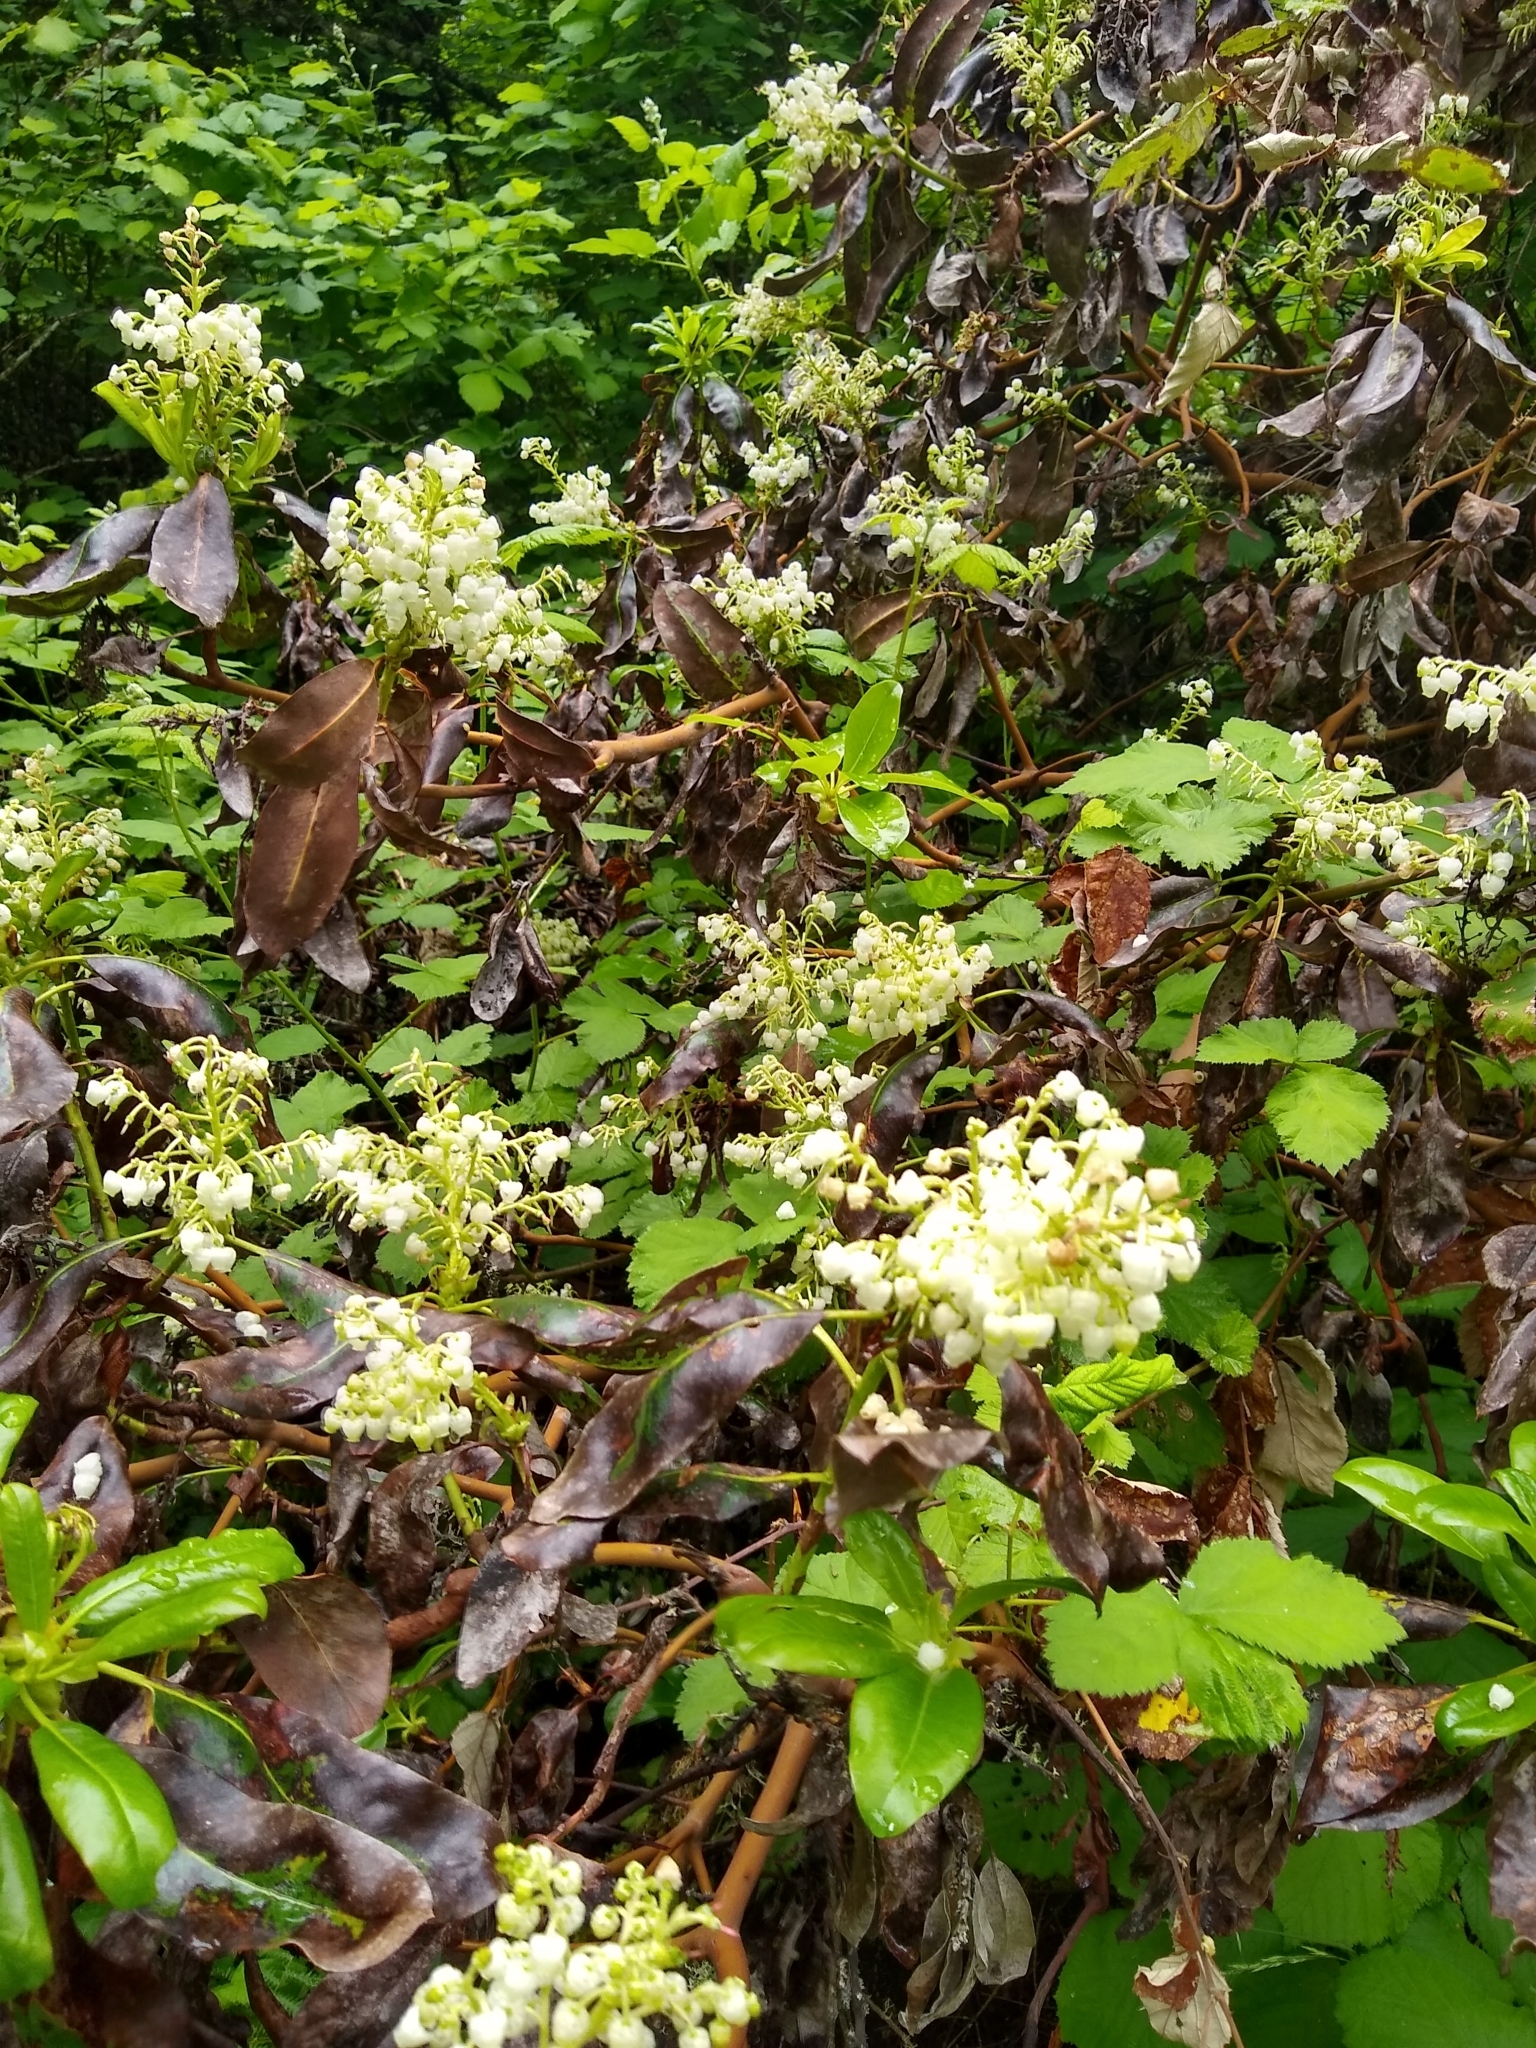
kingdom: Plantae
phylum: Tracheophyta
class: Magnoliopsida
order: Ericales
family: Ericaceae
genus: Arbutus
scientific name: Arbutus menziesii
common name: Pacific madrone
